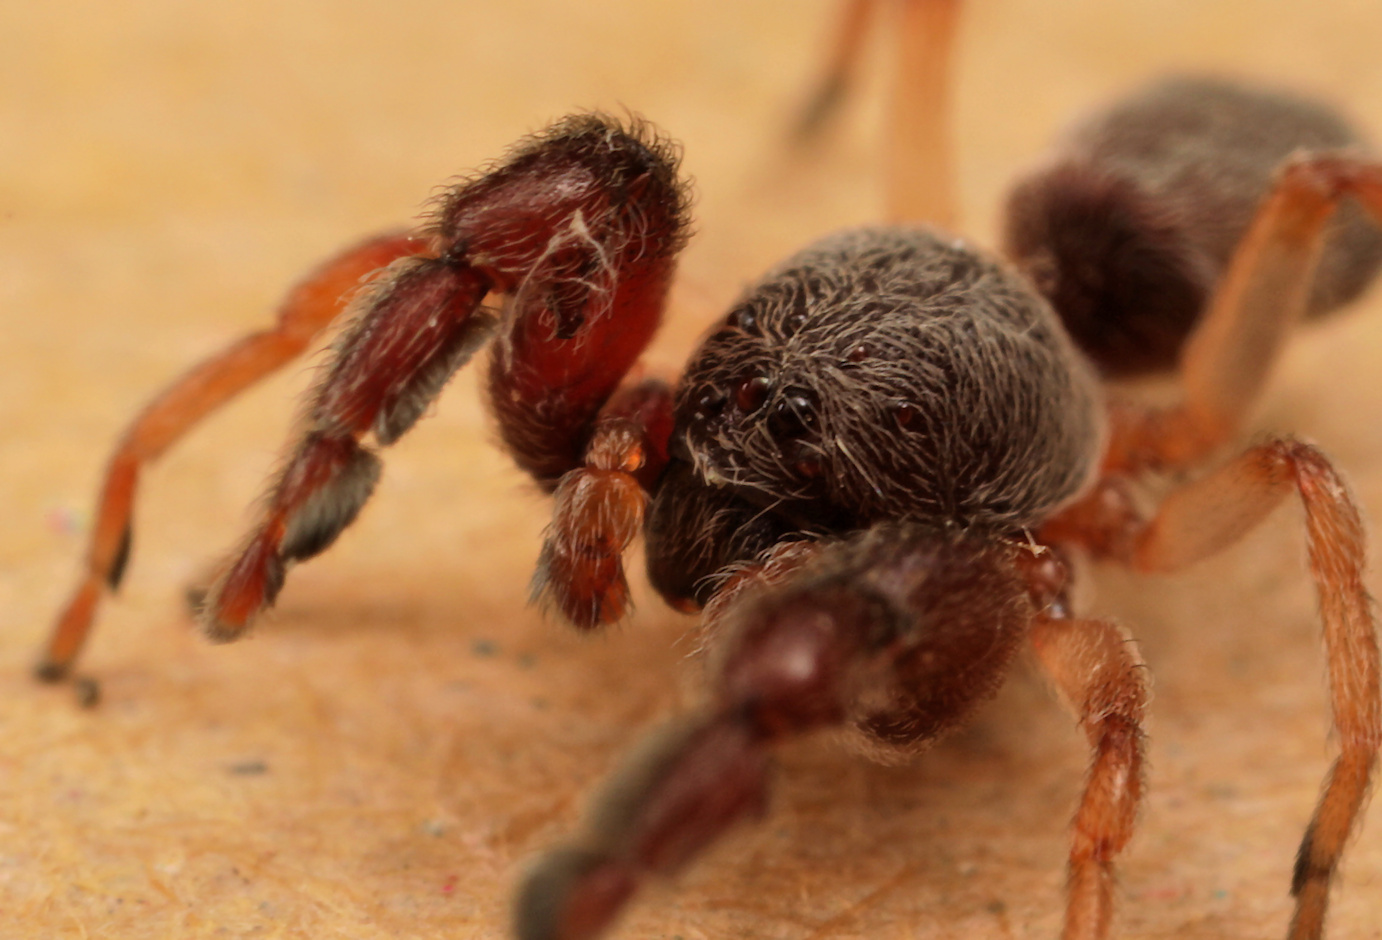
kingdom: Animalia
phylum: Arthropoda
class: Arachnida
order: Araneae
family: Palpimanidae
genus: Palpimanus
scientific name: Palpimanus tuberculatus
